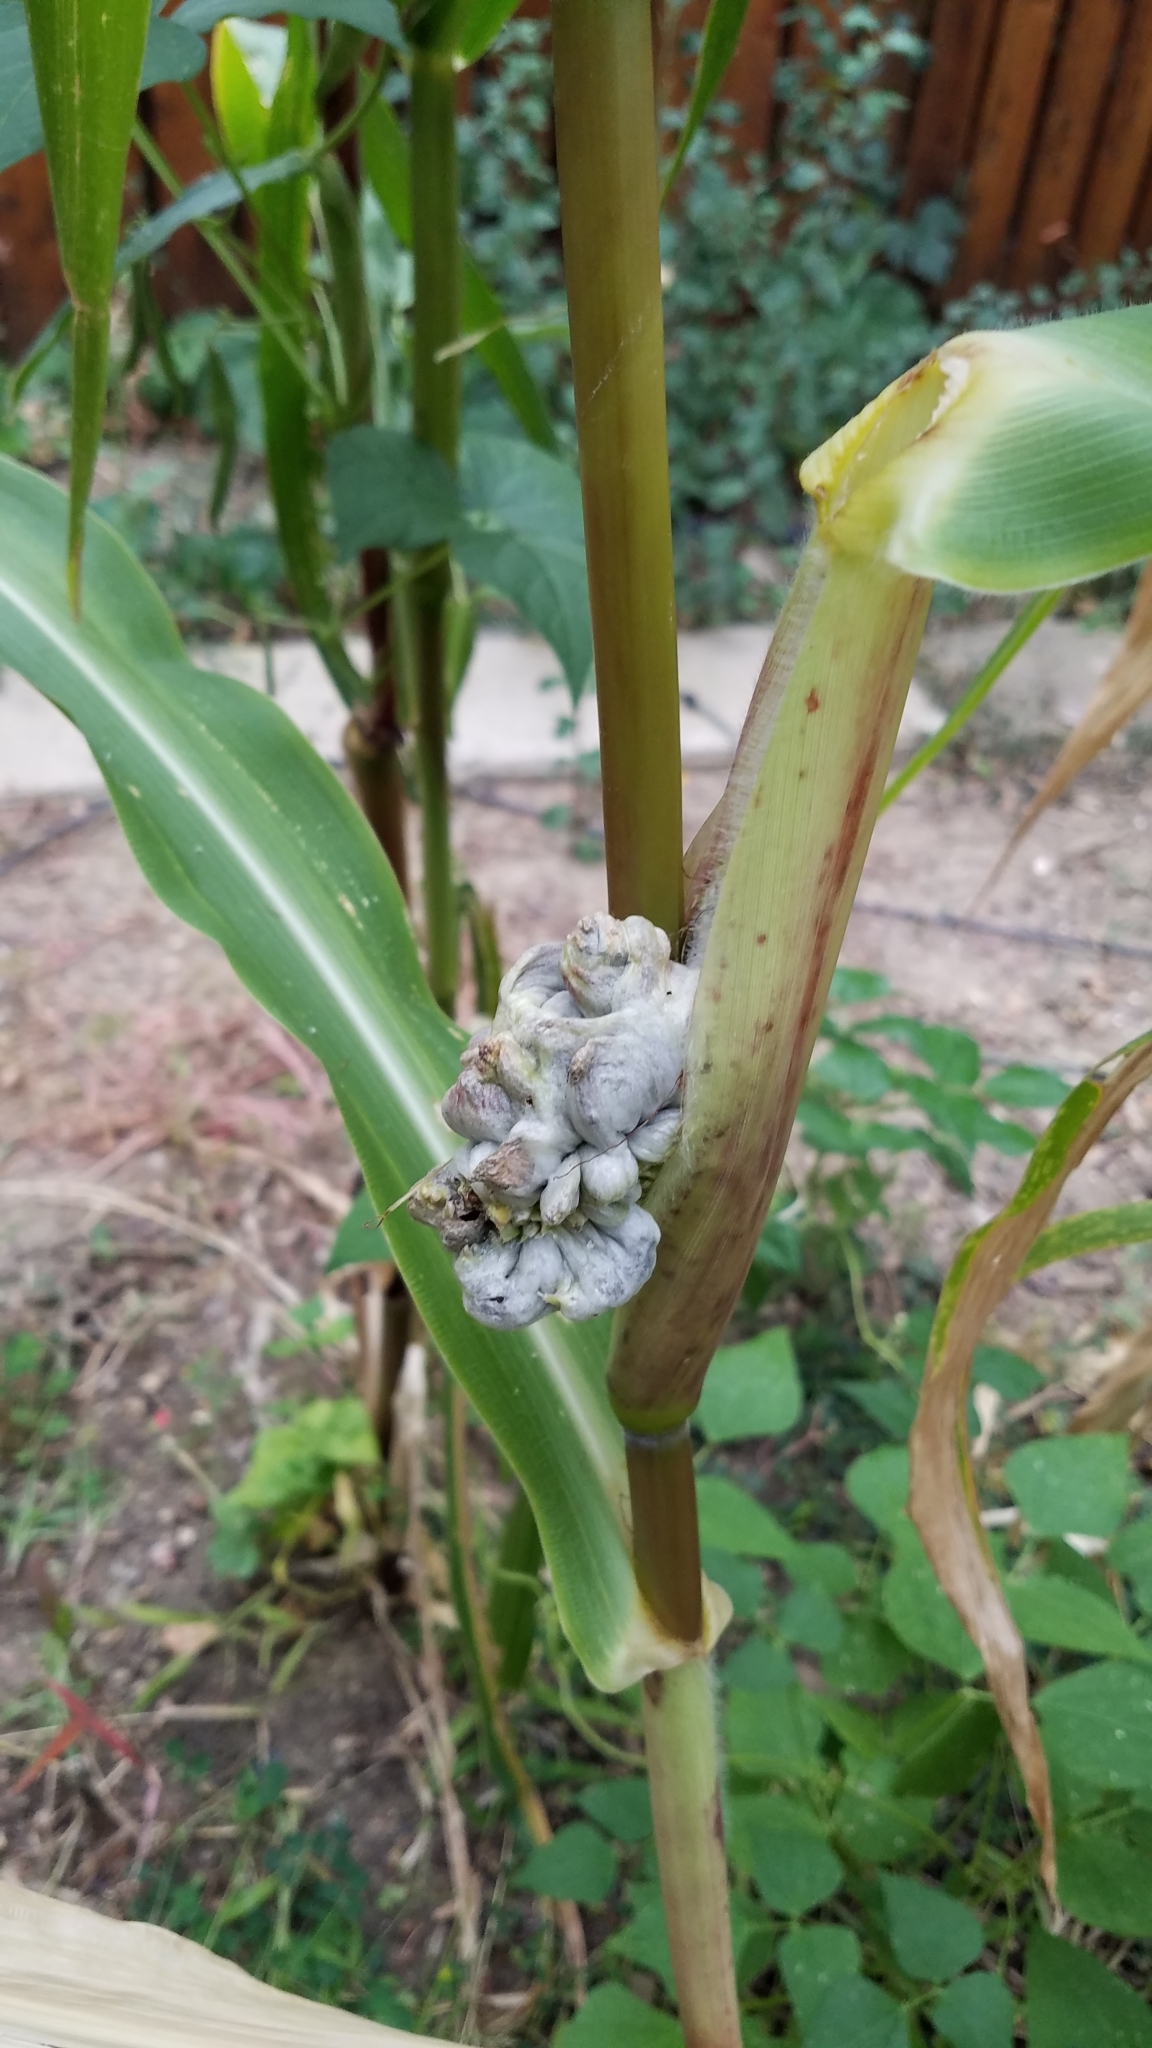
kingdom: Fungi
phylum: Basidiomycota
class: Ustilaginomycetes
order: Ustilaginales
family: Ustilaginaceae
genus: Mycosarcoma
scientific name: Mycosarcoma maydis
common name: Corn smut
